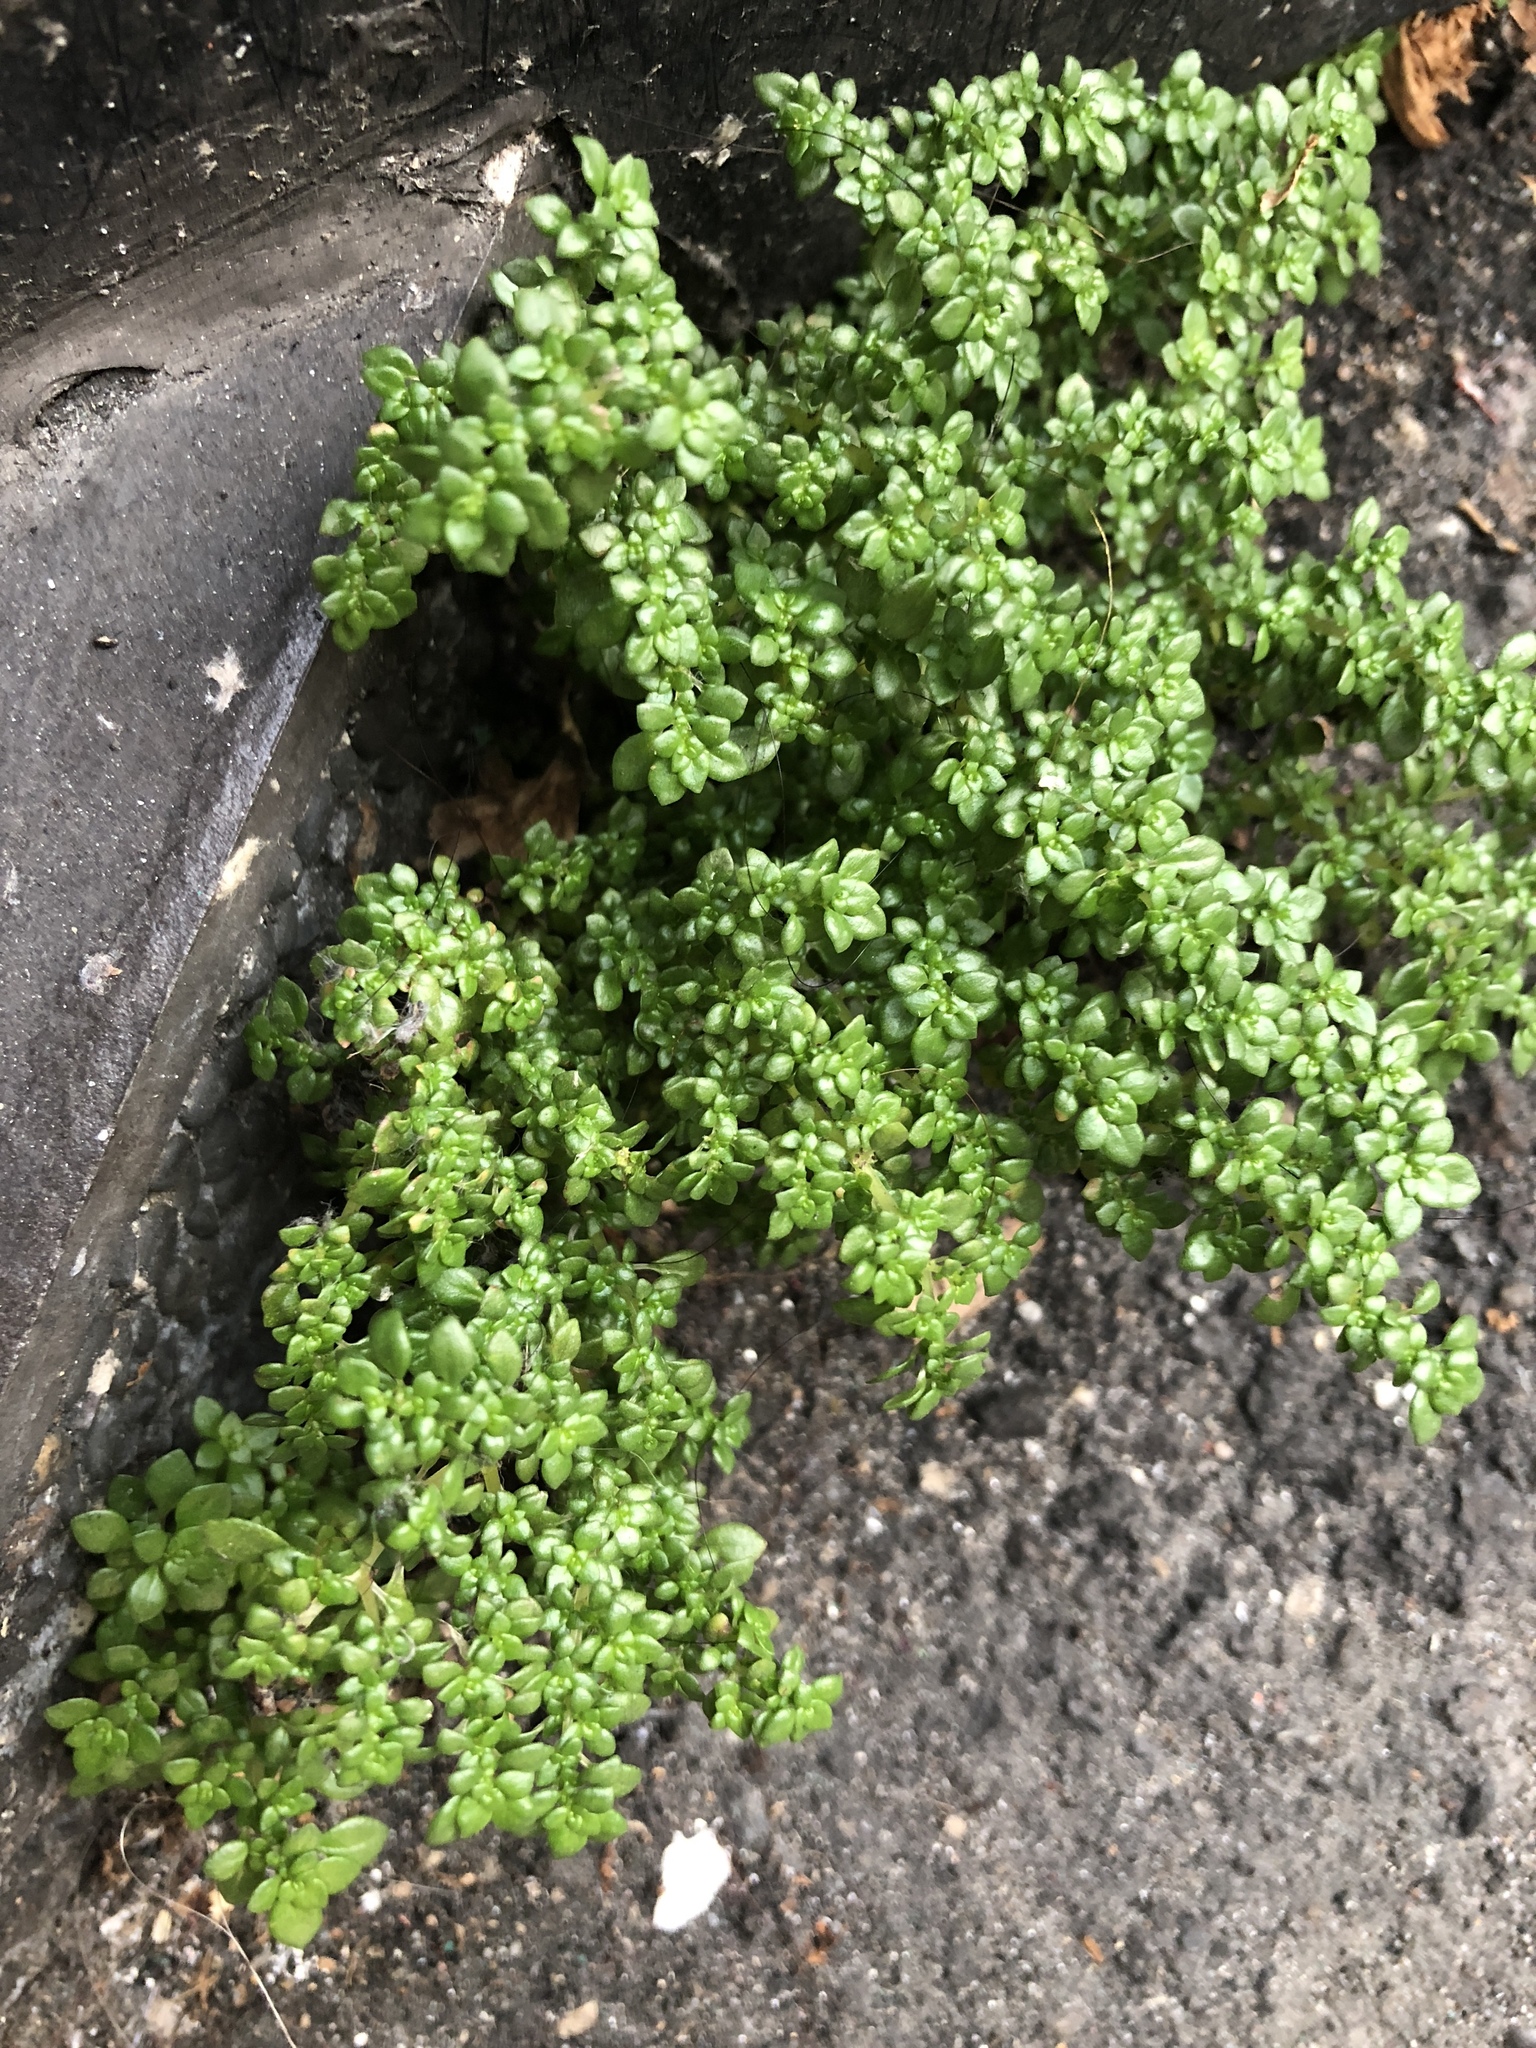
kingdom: Plantae
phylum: Tracheophyta
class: Magnoliopsida
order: Rosales
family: Urticaceae
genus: Pilea
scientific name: Pilea microphylla
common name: Artillery-plant
